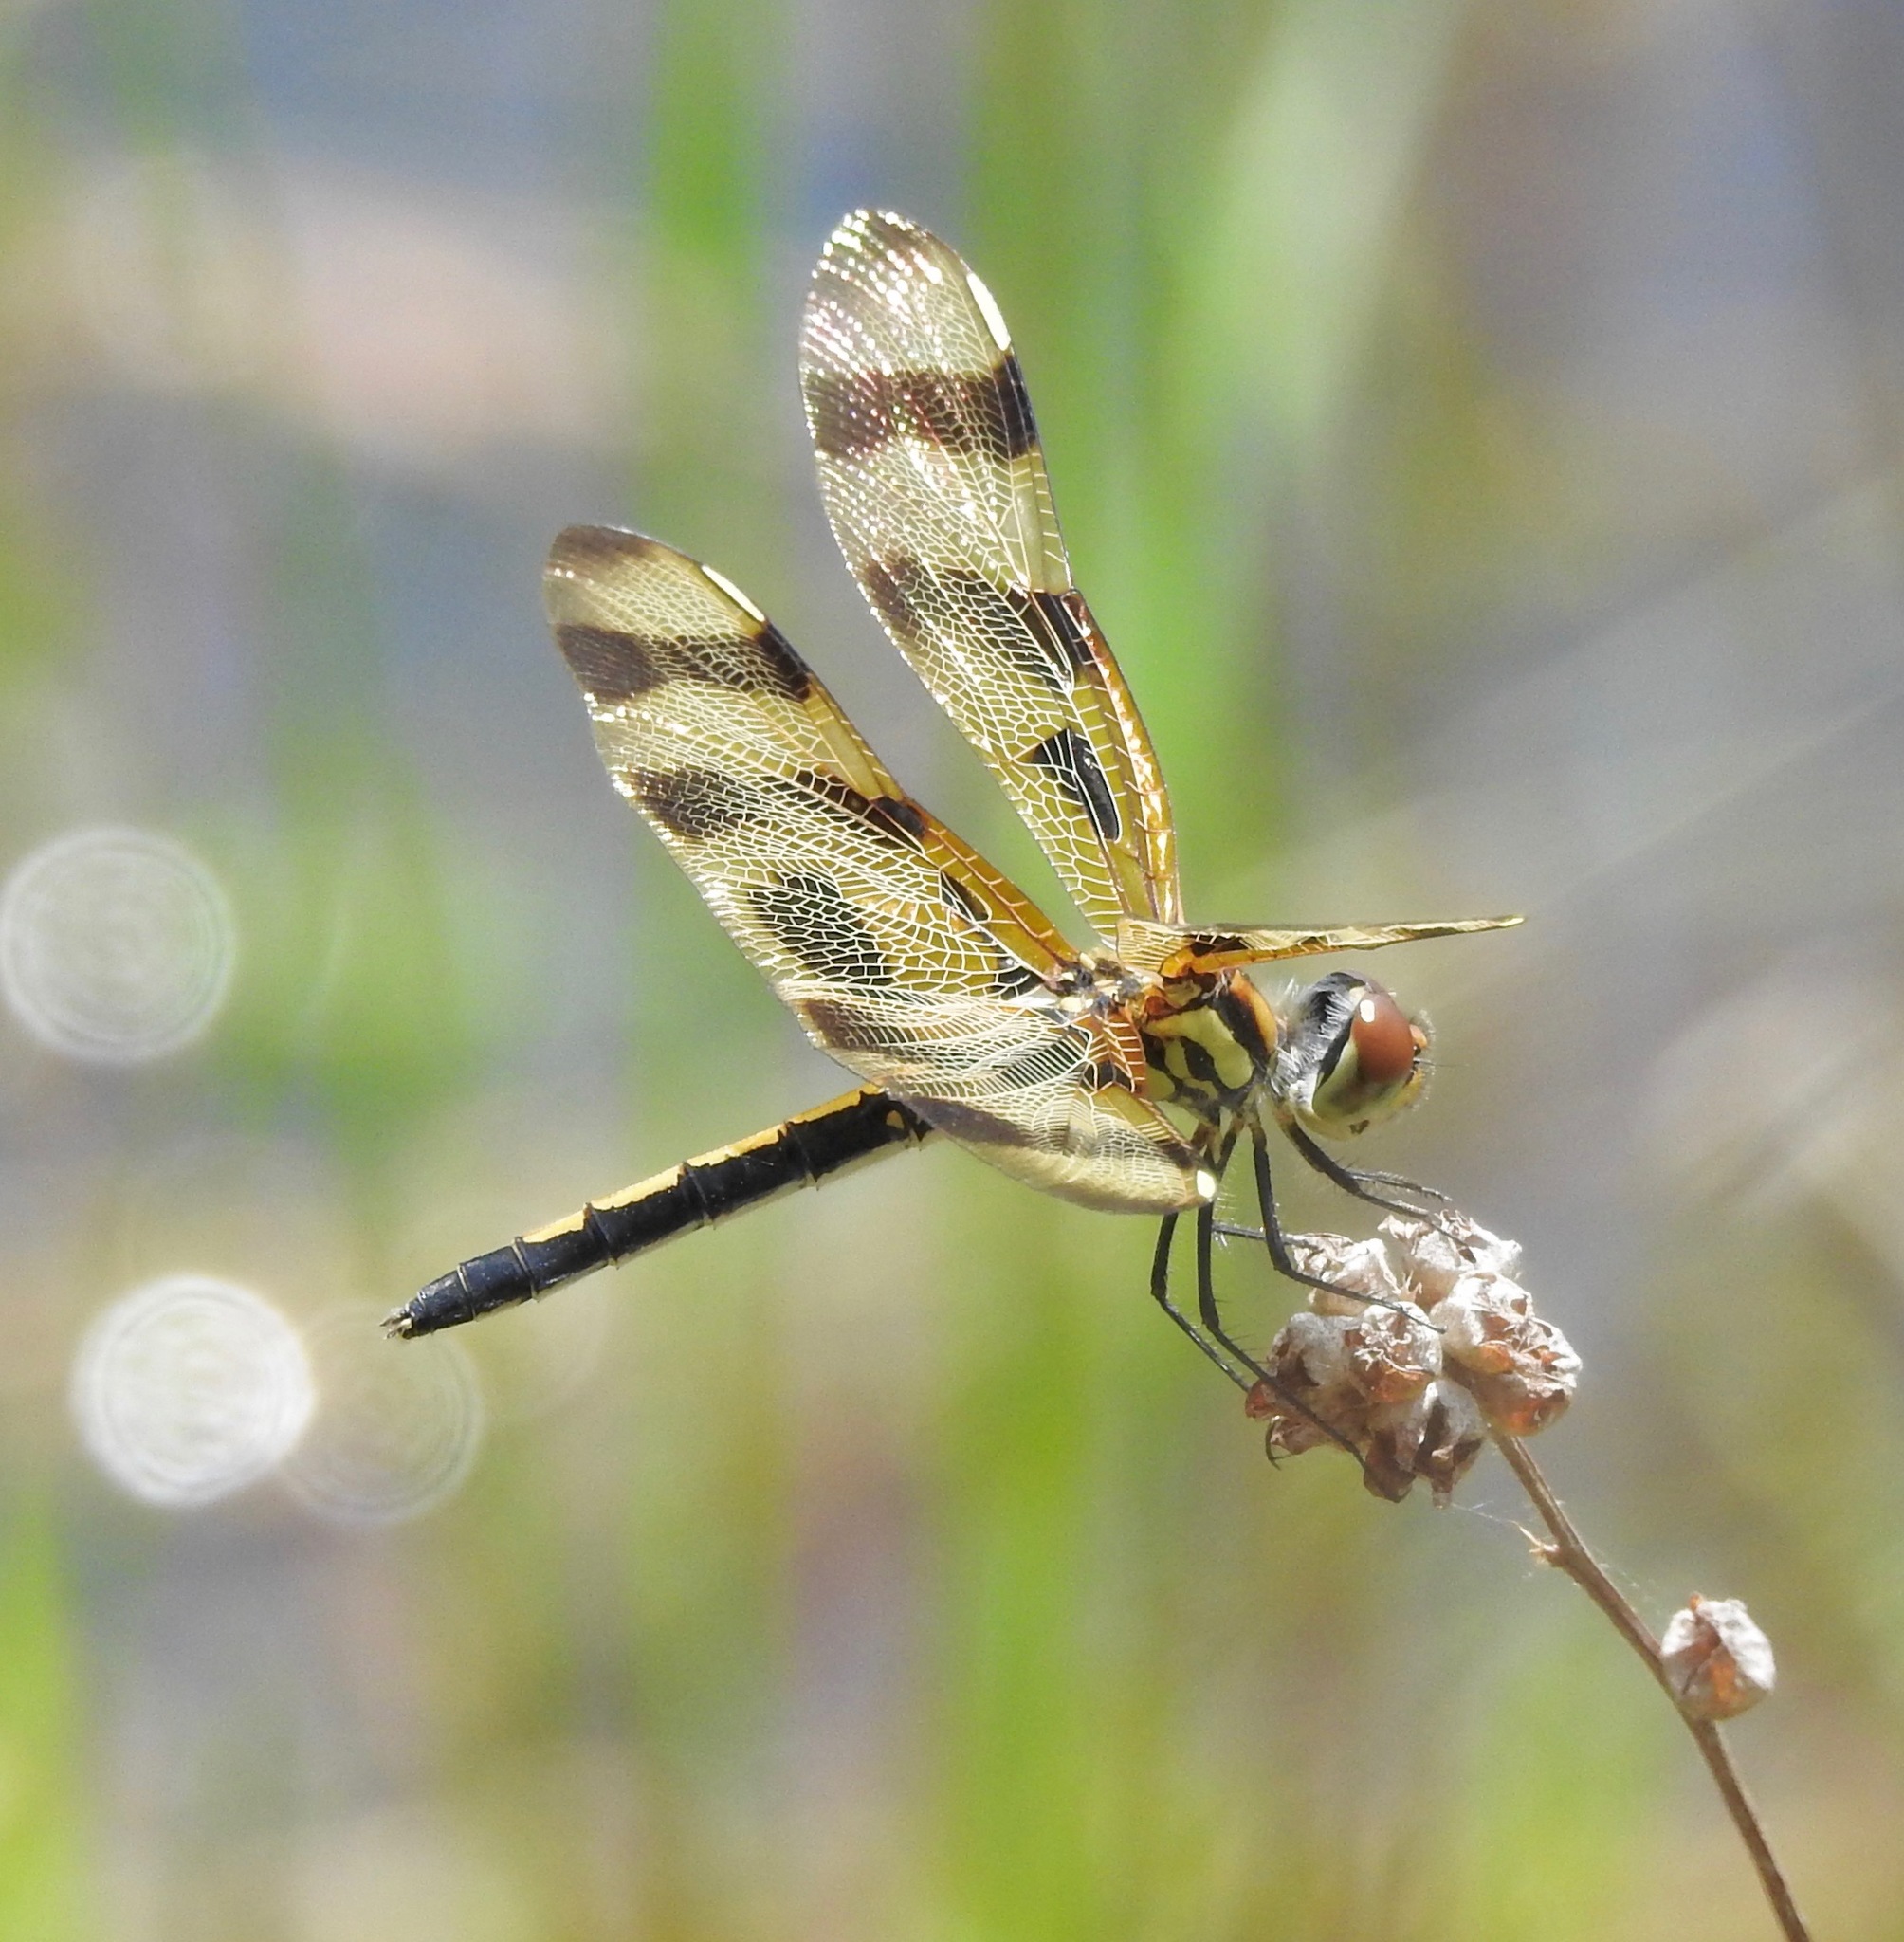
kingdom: Animalia
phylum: Arthropoda
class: Insecta
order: Odonata
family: Libellulidae
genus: Celithemis
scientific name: Celithemis eponina
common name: Halloween pennant
